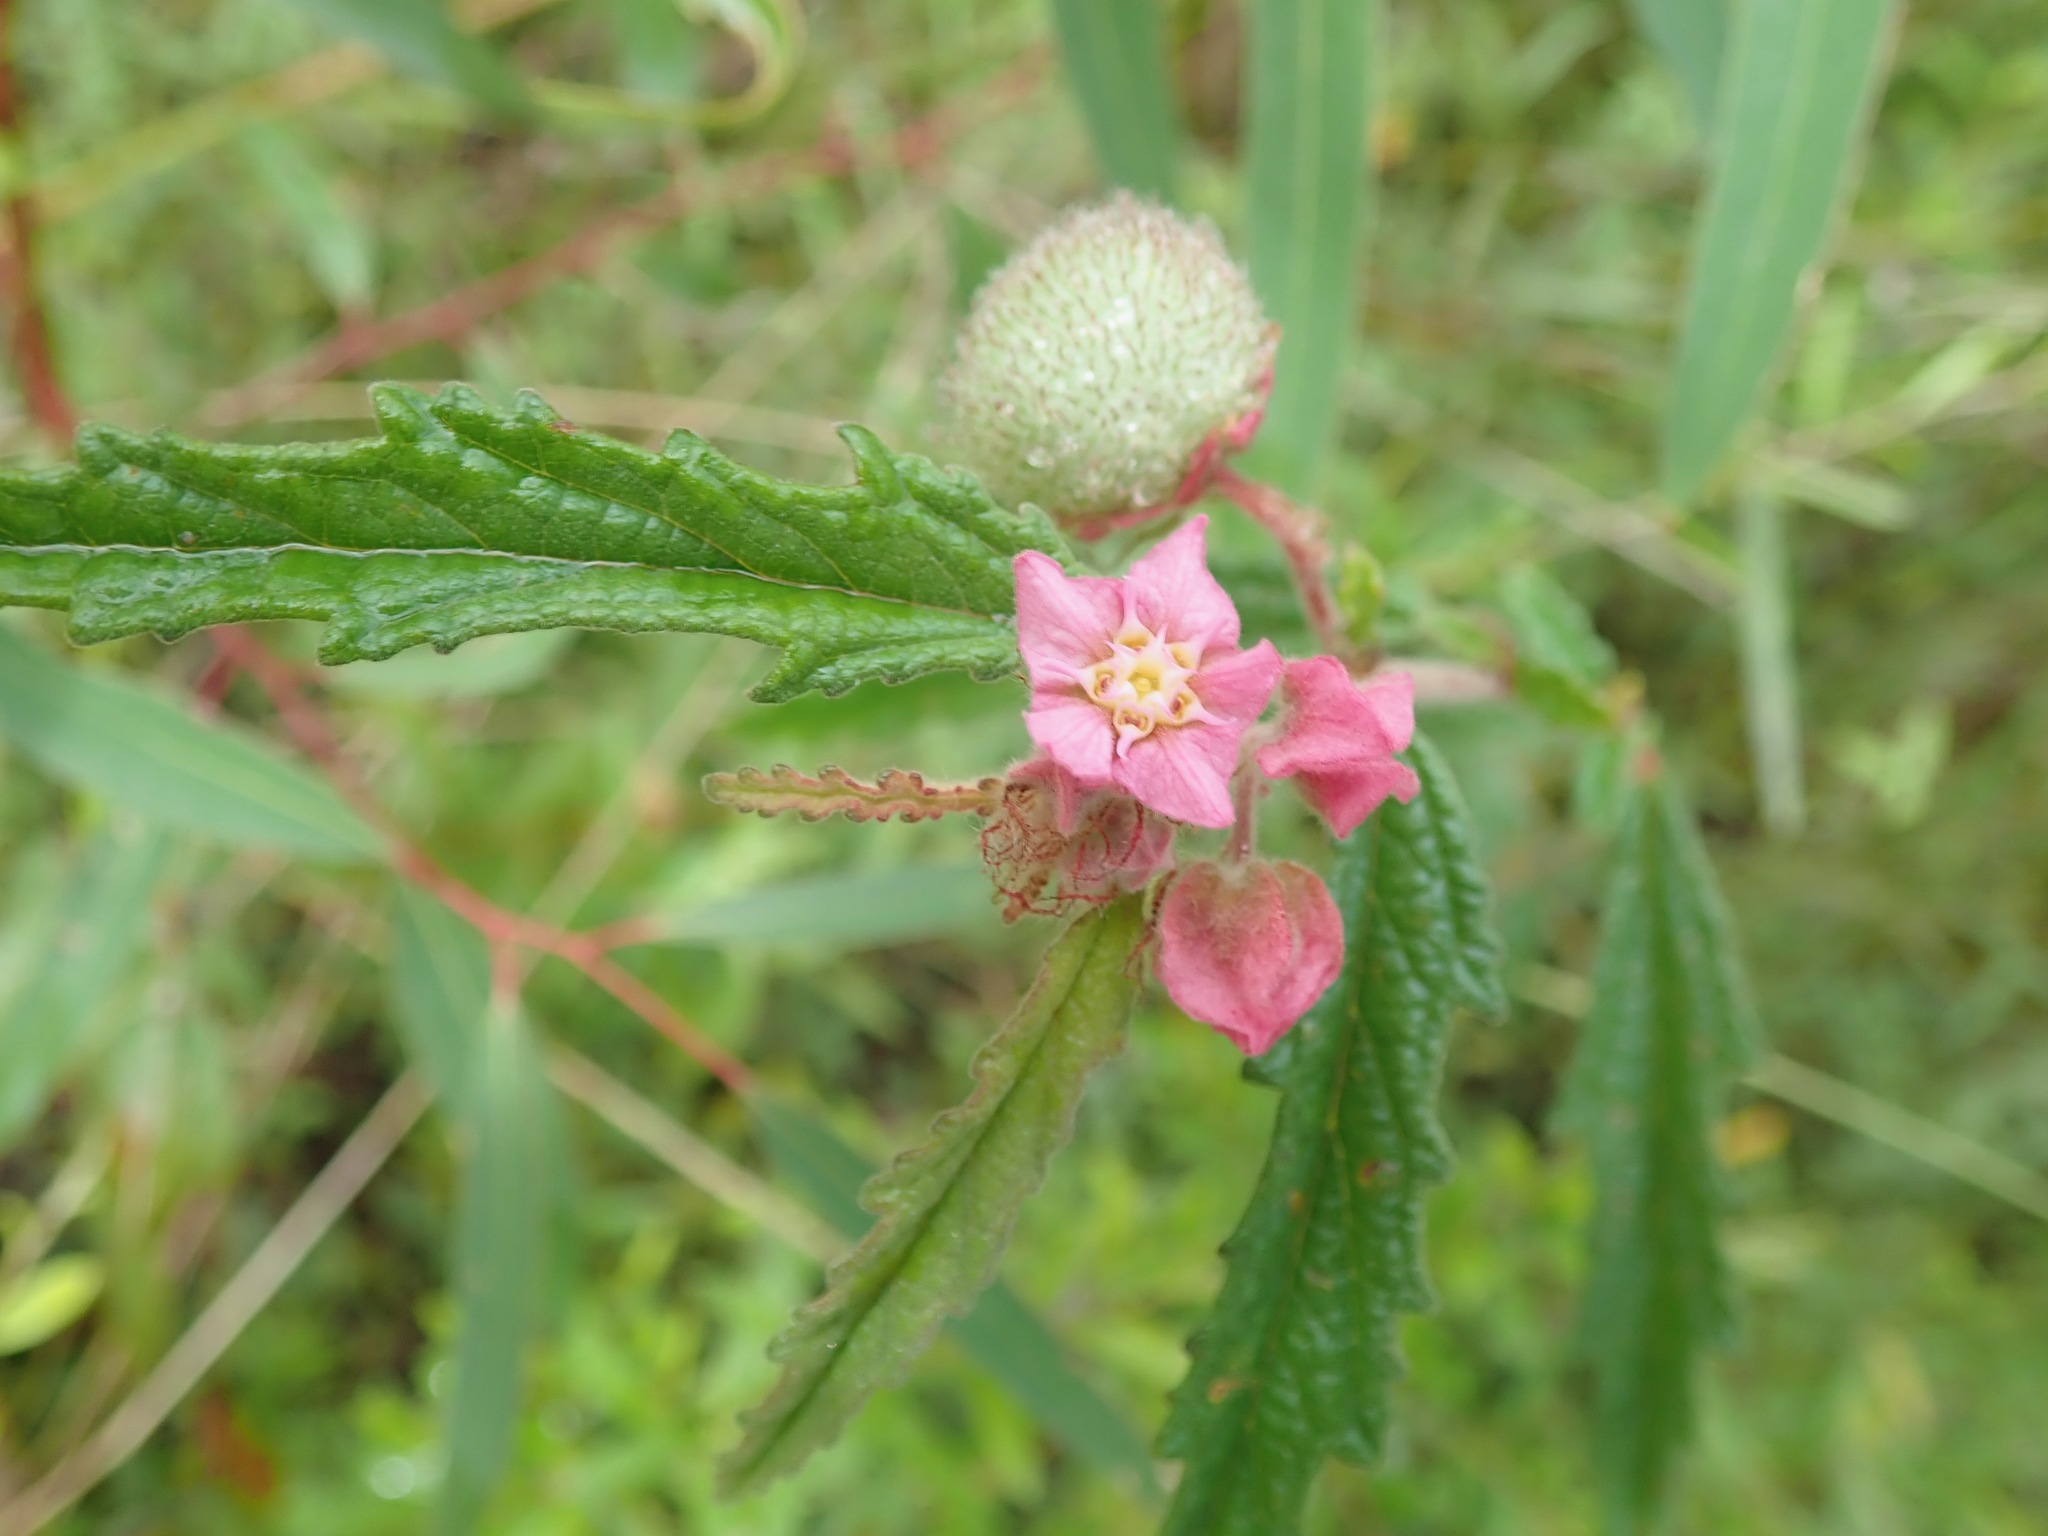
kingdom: Plantae
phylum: Tracheophyta
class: Magnoliopsida
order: Malvales
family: Malvaceae
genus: Androcalva
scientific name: Androcalva rosea
